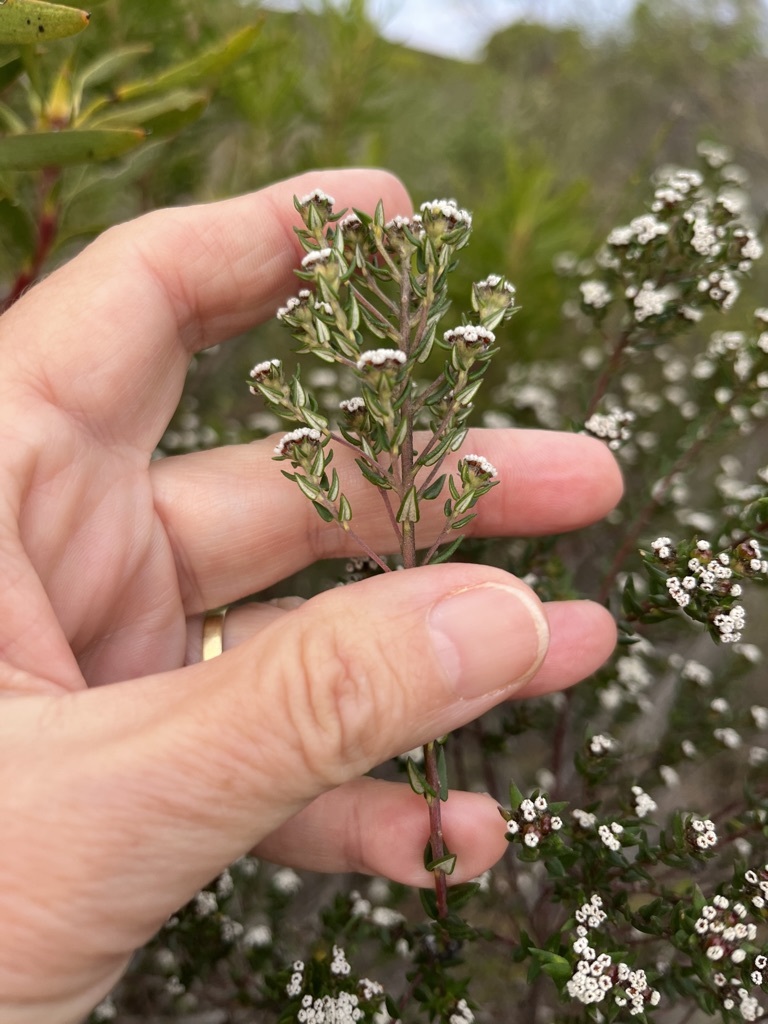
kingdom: Plantae
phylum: Tracheophyta
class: Magnoliopsida
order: Rosales
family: Rhamnaceae
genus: Phylica
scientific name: Phylica diffusa
